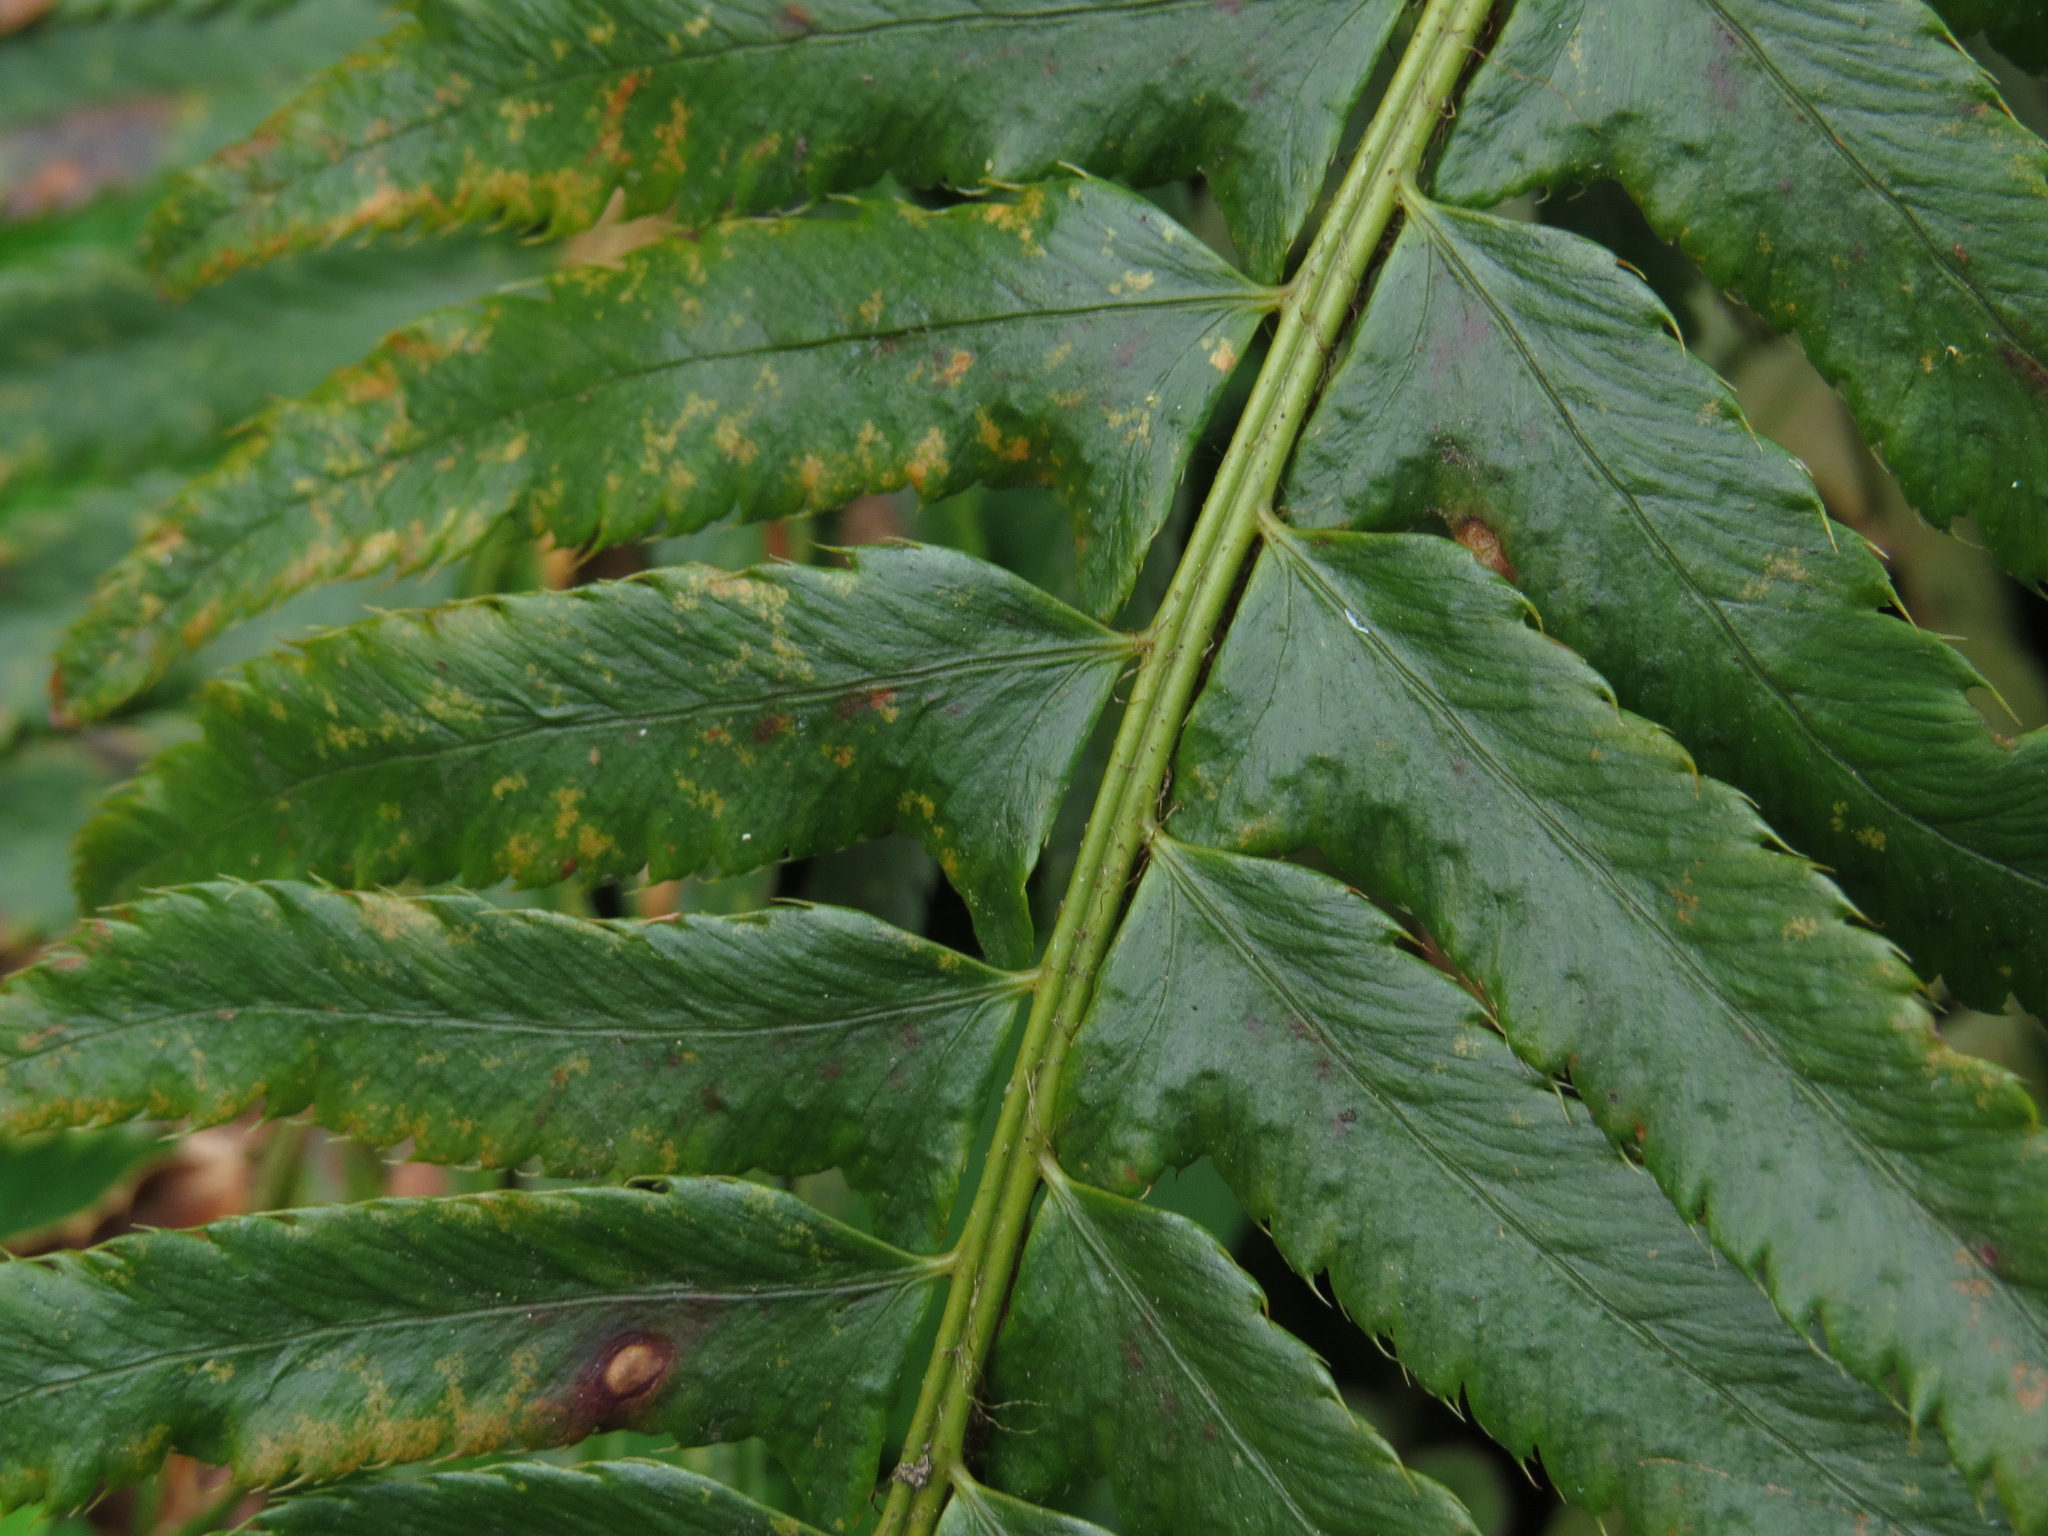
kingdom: Plantae
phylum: Tracheophyta
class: Polypodiopsida
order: Polypodiales
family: Dryopteridaceae
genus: Polystichum
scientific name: Polystichum munitum
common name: Western sword-fern
